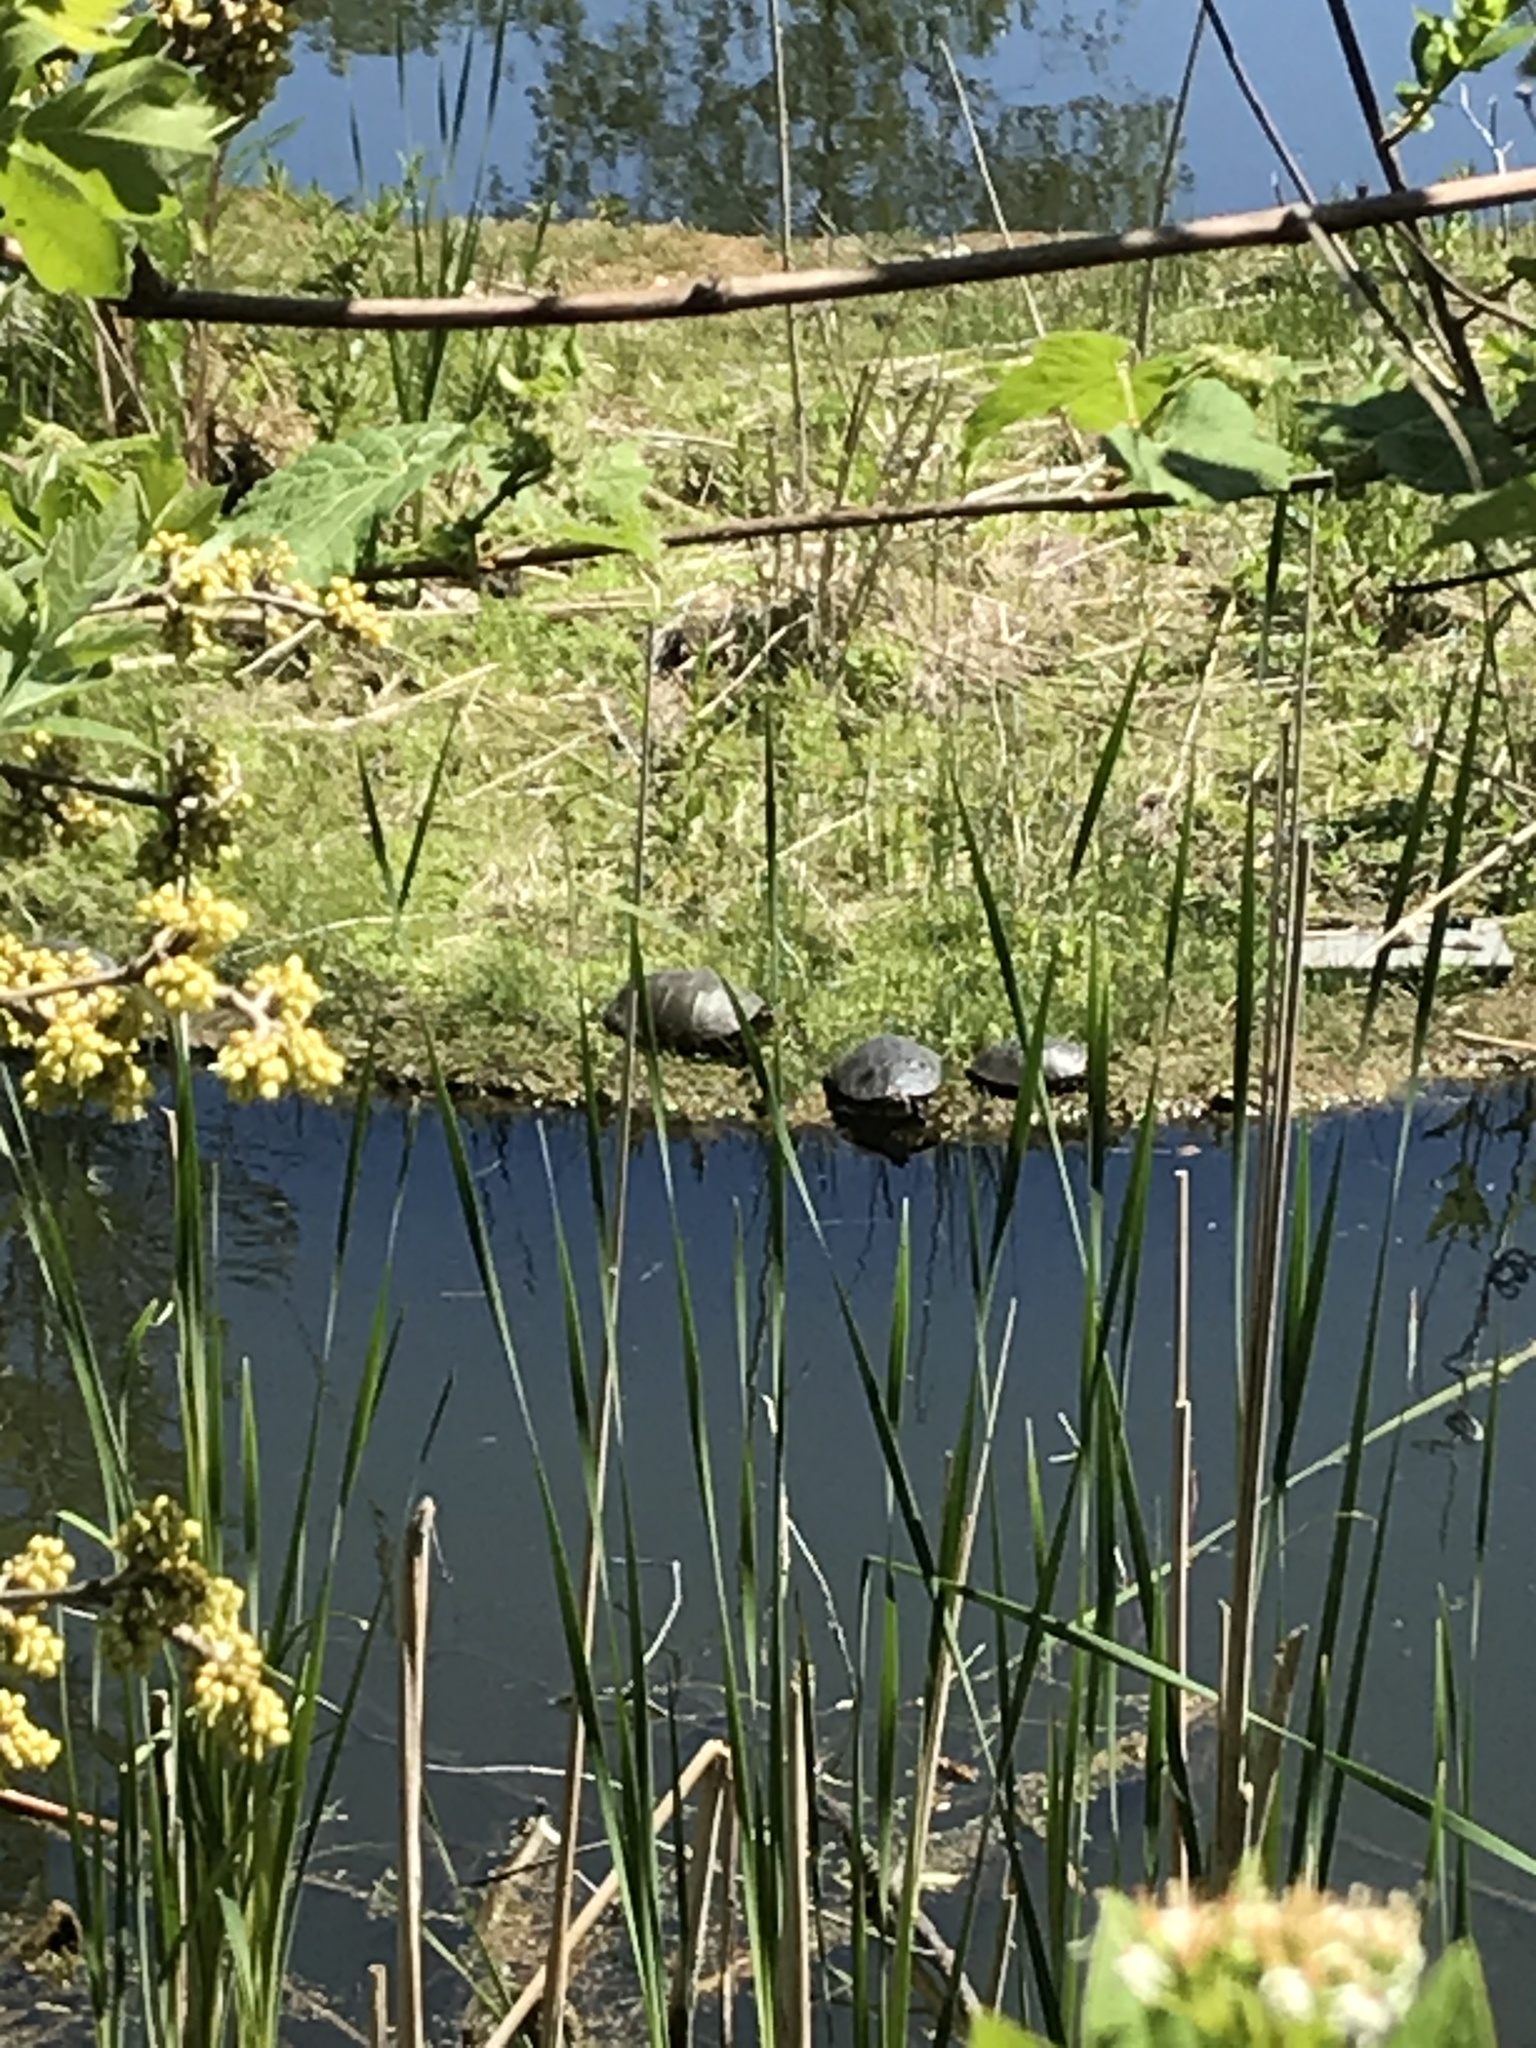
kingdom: Animalia
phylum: Chordata
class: Testudines
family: Emydidae
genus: Chrysemys
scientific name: Chrysemys picta
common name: Painted turtle
